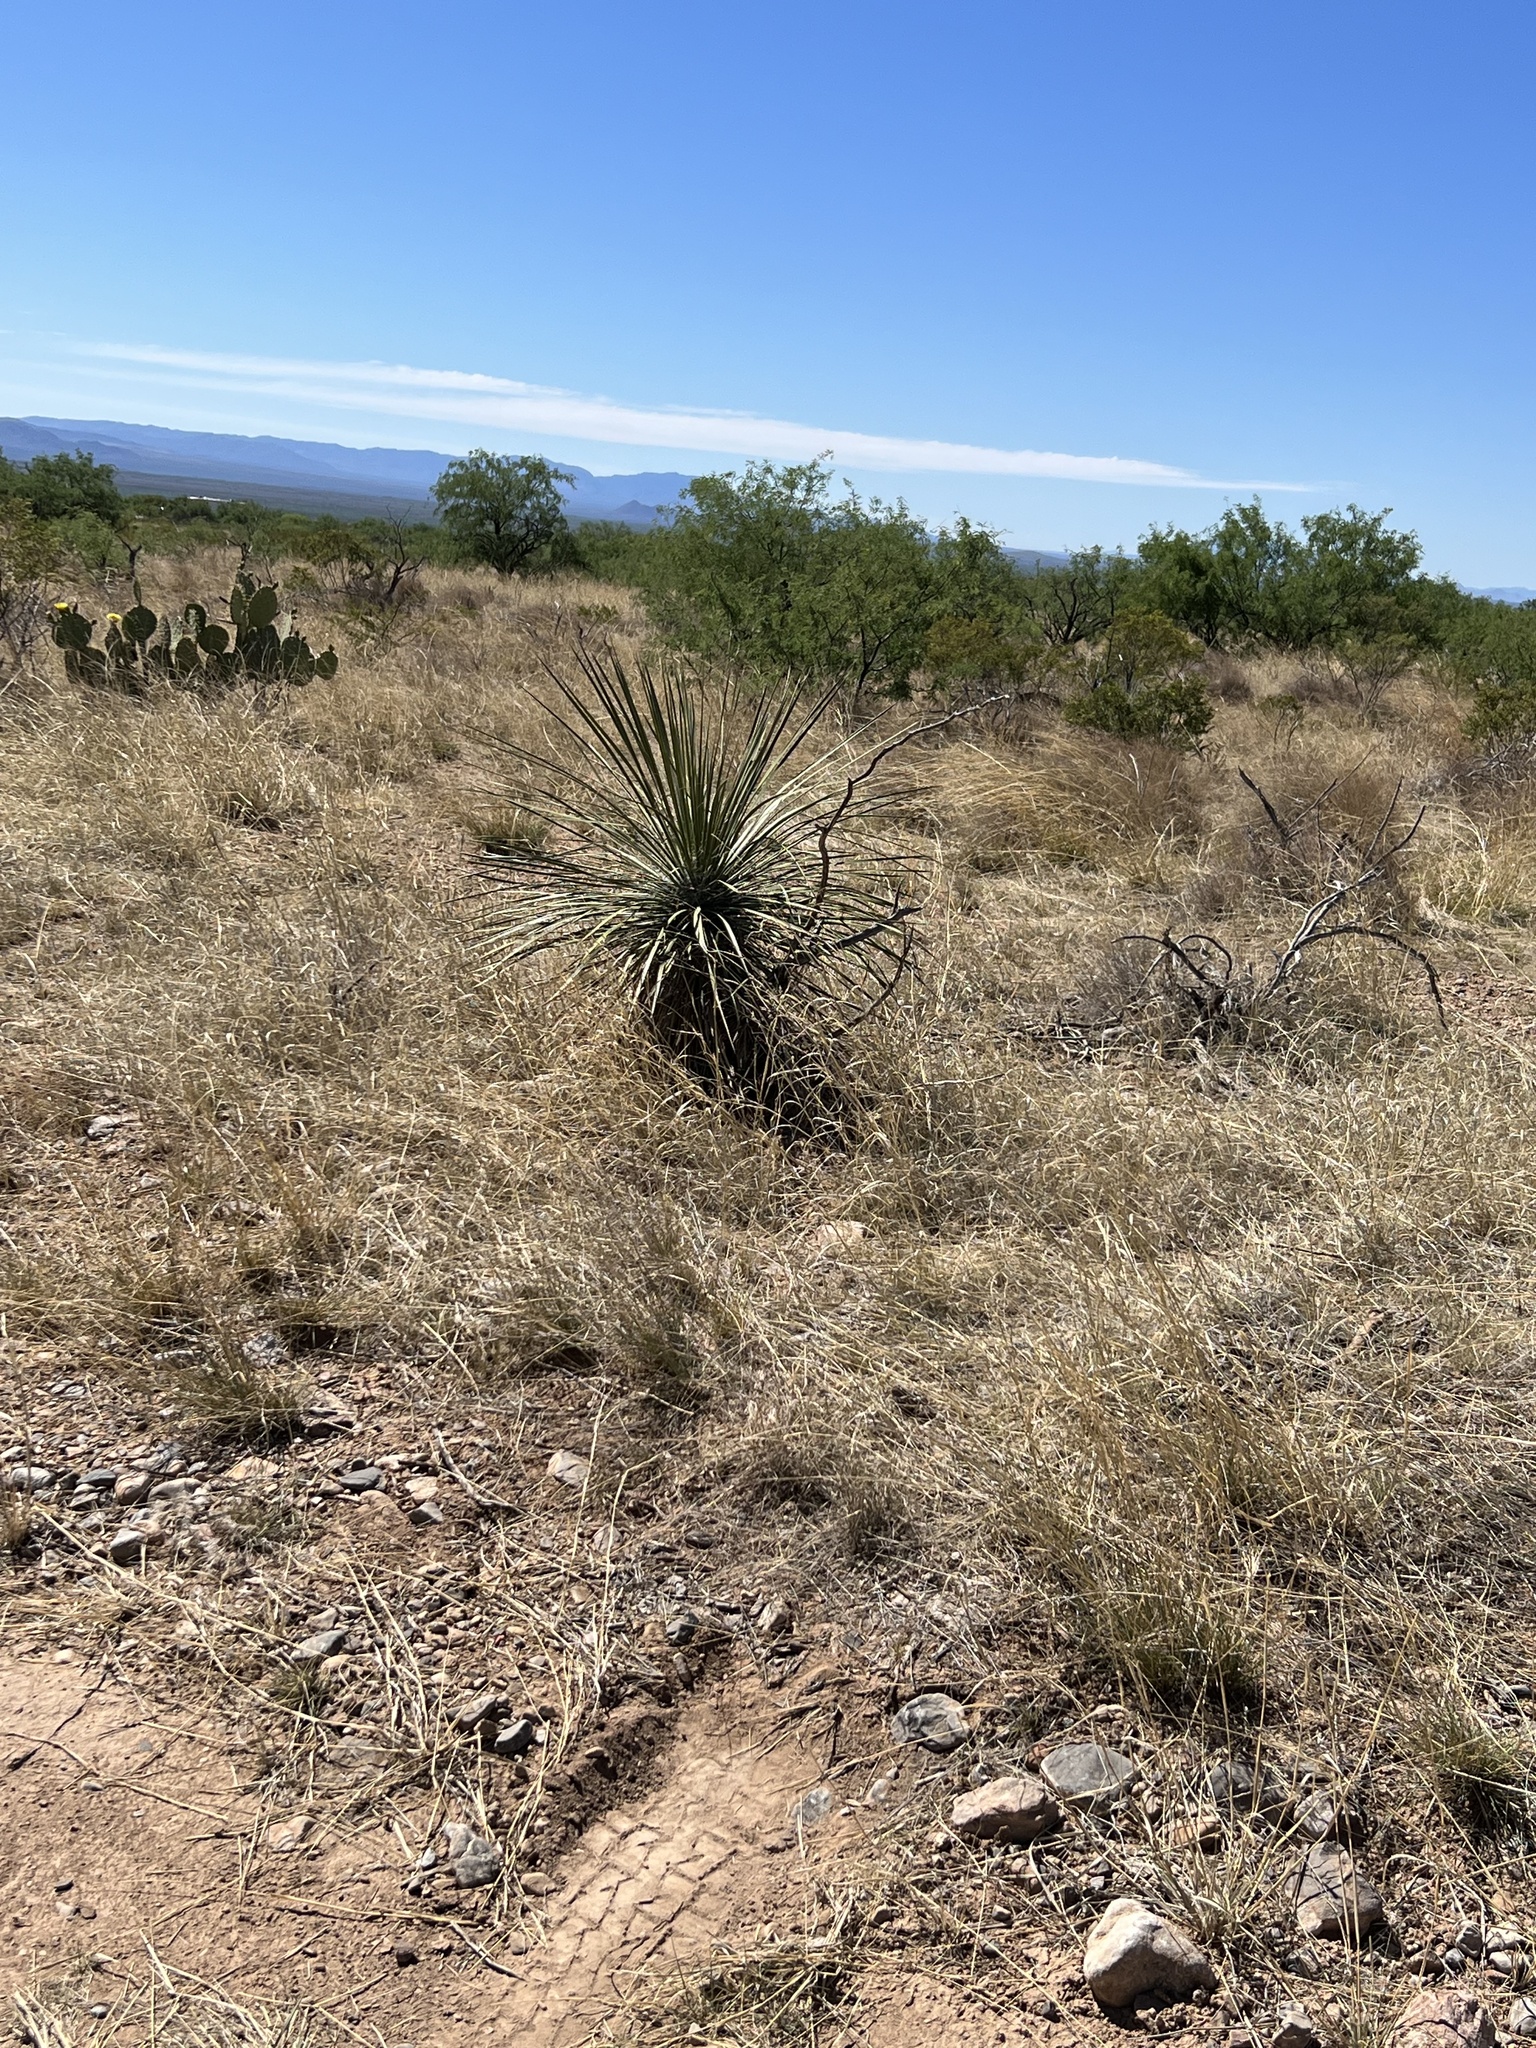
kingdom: Plantae
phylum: Tracheophyta
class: Liliopsida
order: Asparagales
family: Asparagaceae
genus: Yucca
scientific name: Yucca elata
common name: Palmella
